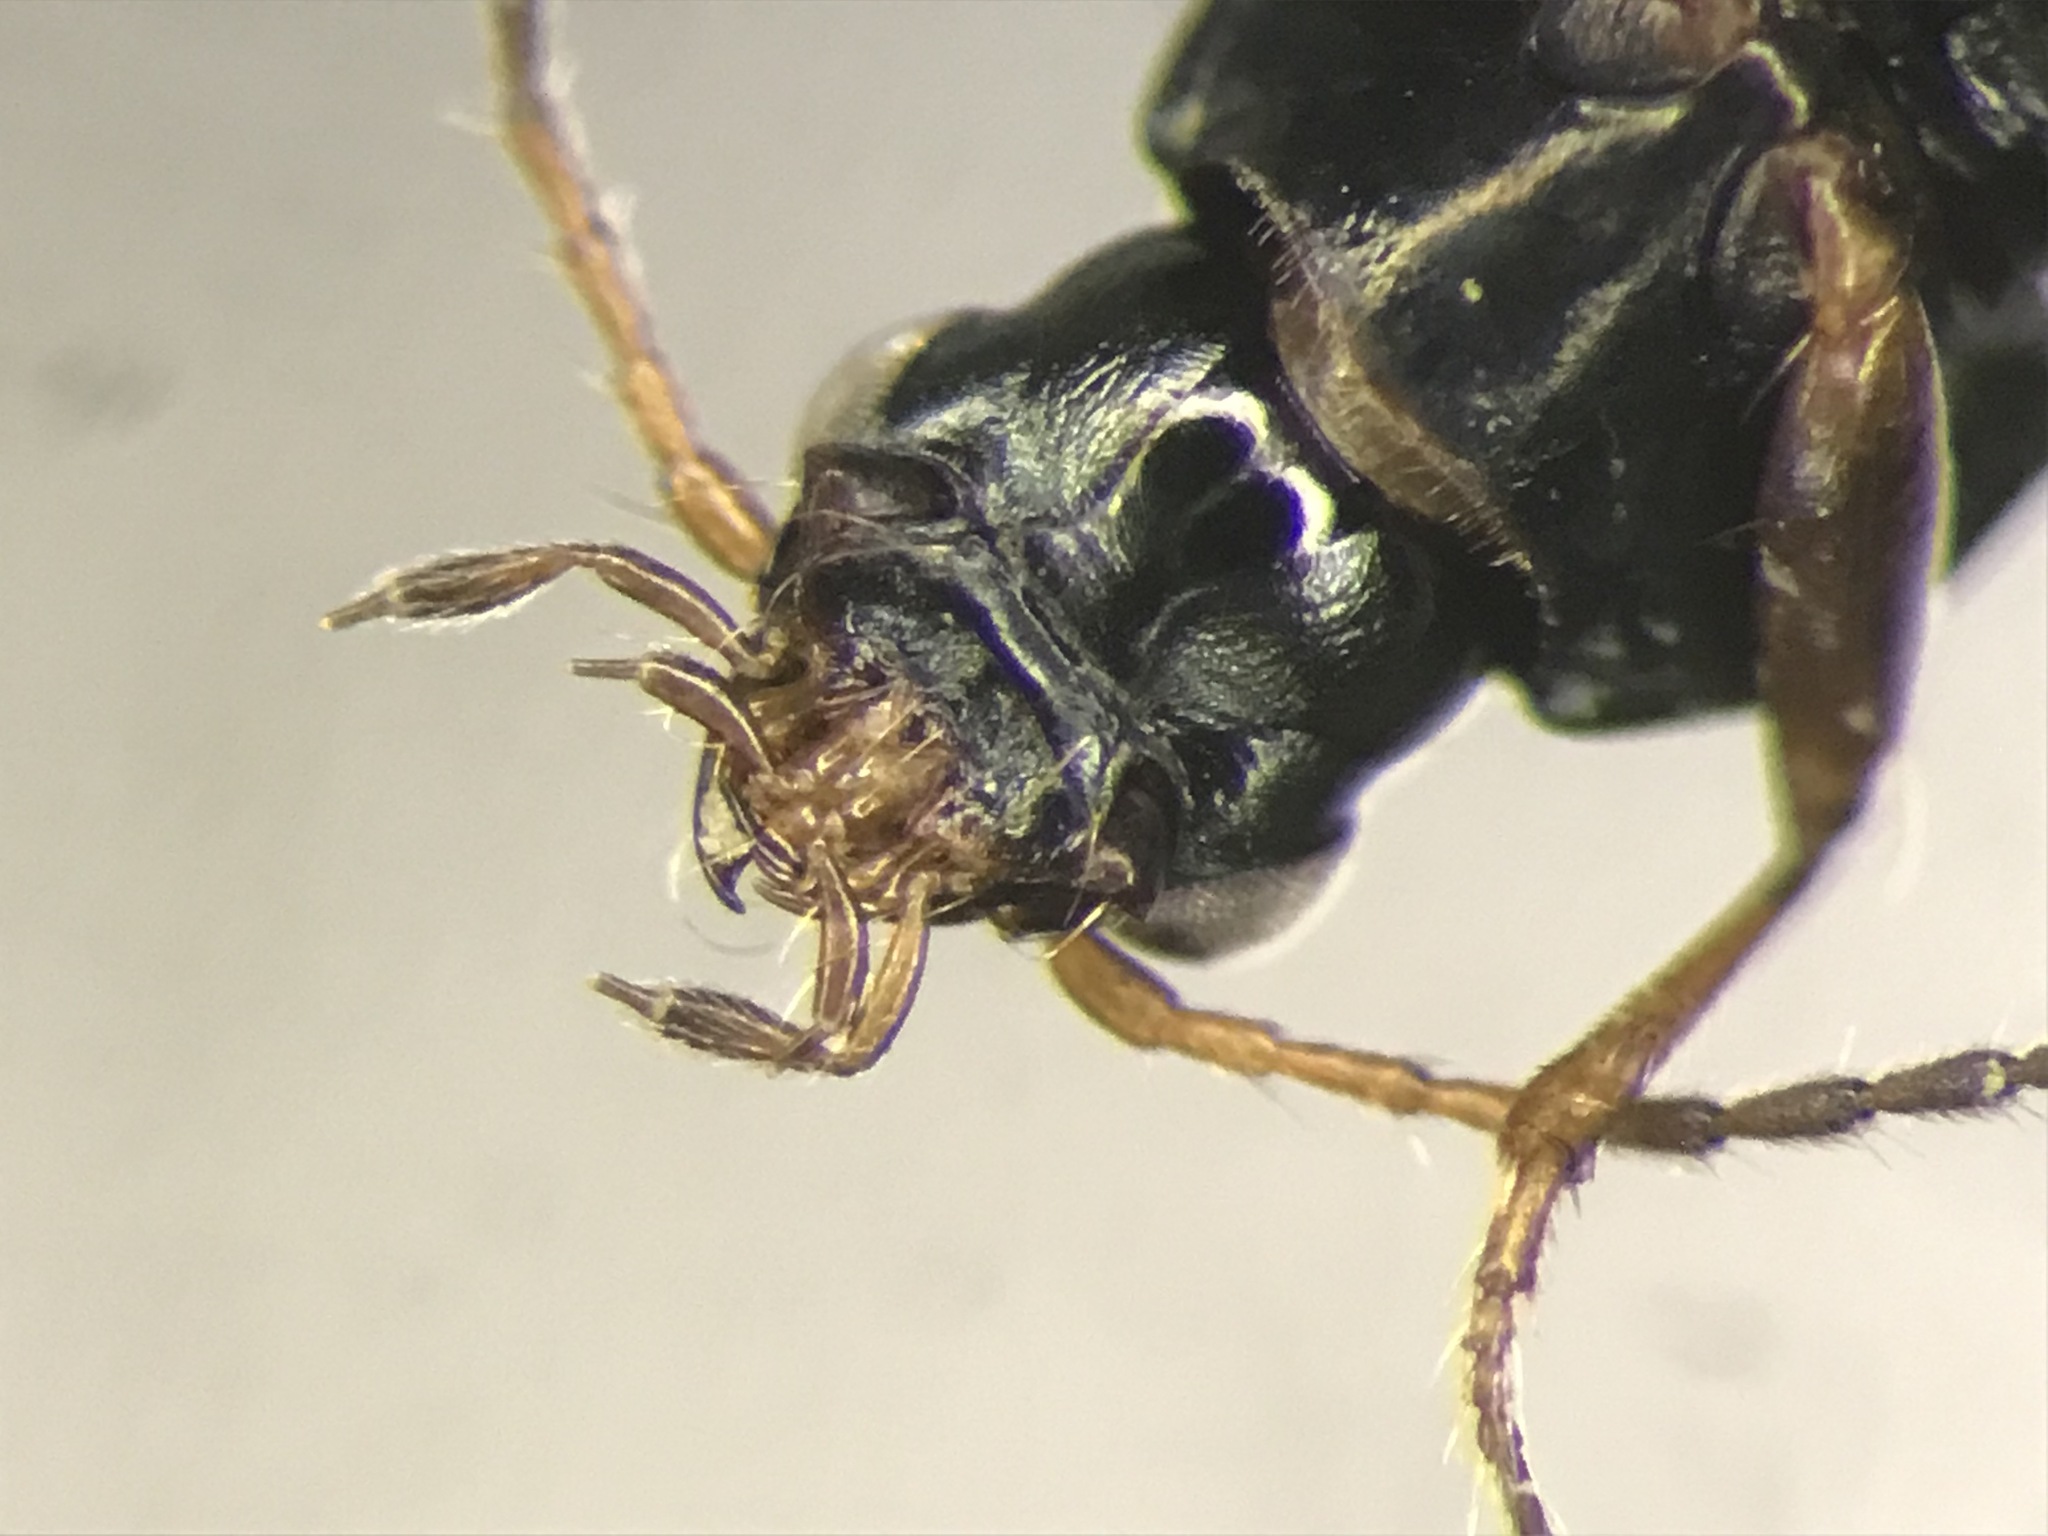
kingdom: Animalia
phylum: Arthropoda
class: Insecta
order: Coleoptera
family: Carabidae
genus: Bembidion
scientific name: Bembidion castor
